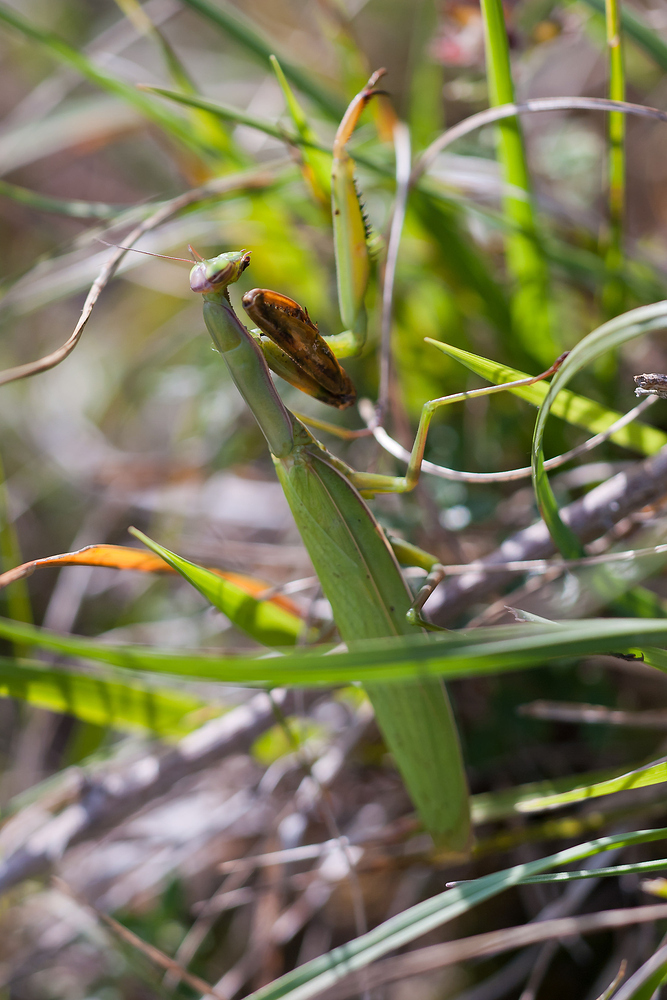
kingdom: Animalia
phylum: Arthropoda
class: Insecta
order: Mantodea
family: Mantidae
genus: Mantis
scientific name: Mantis religiosa
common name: Praying mantis
